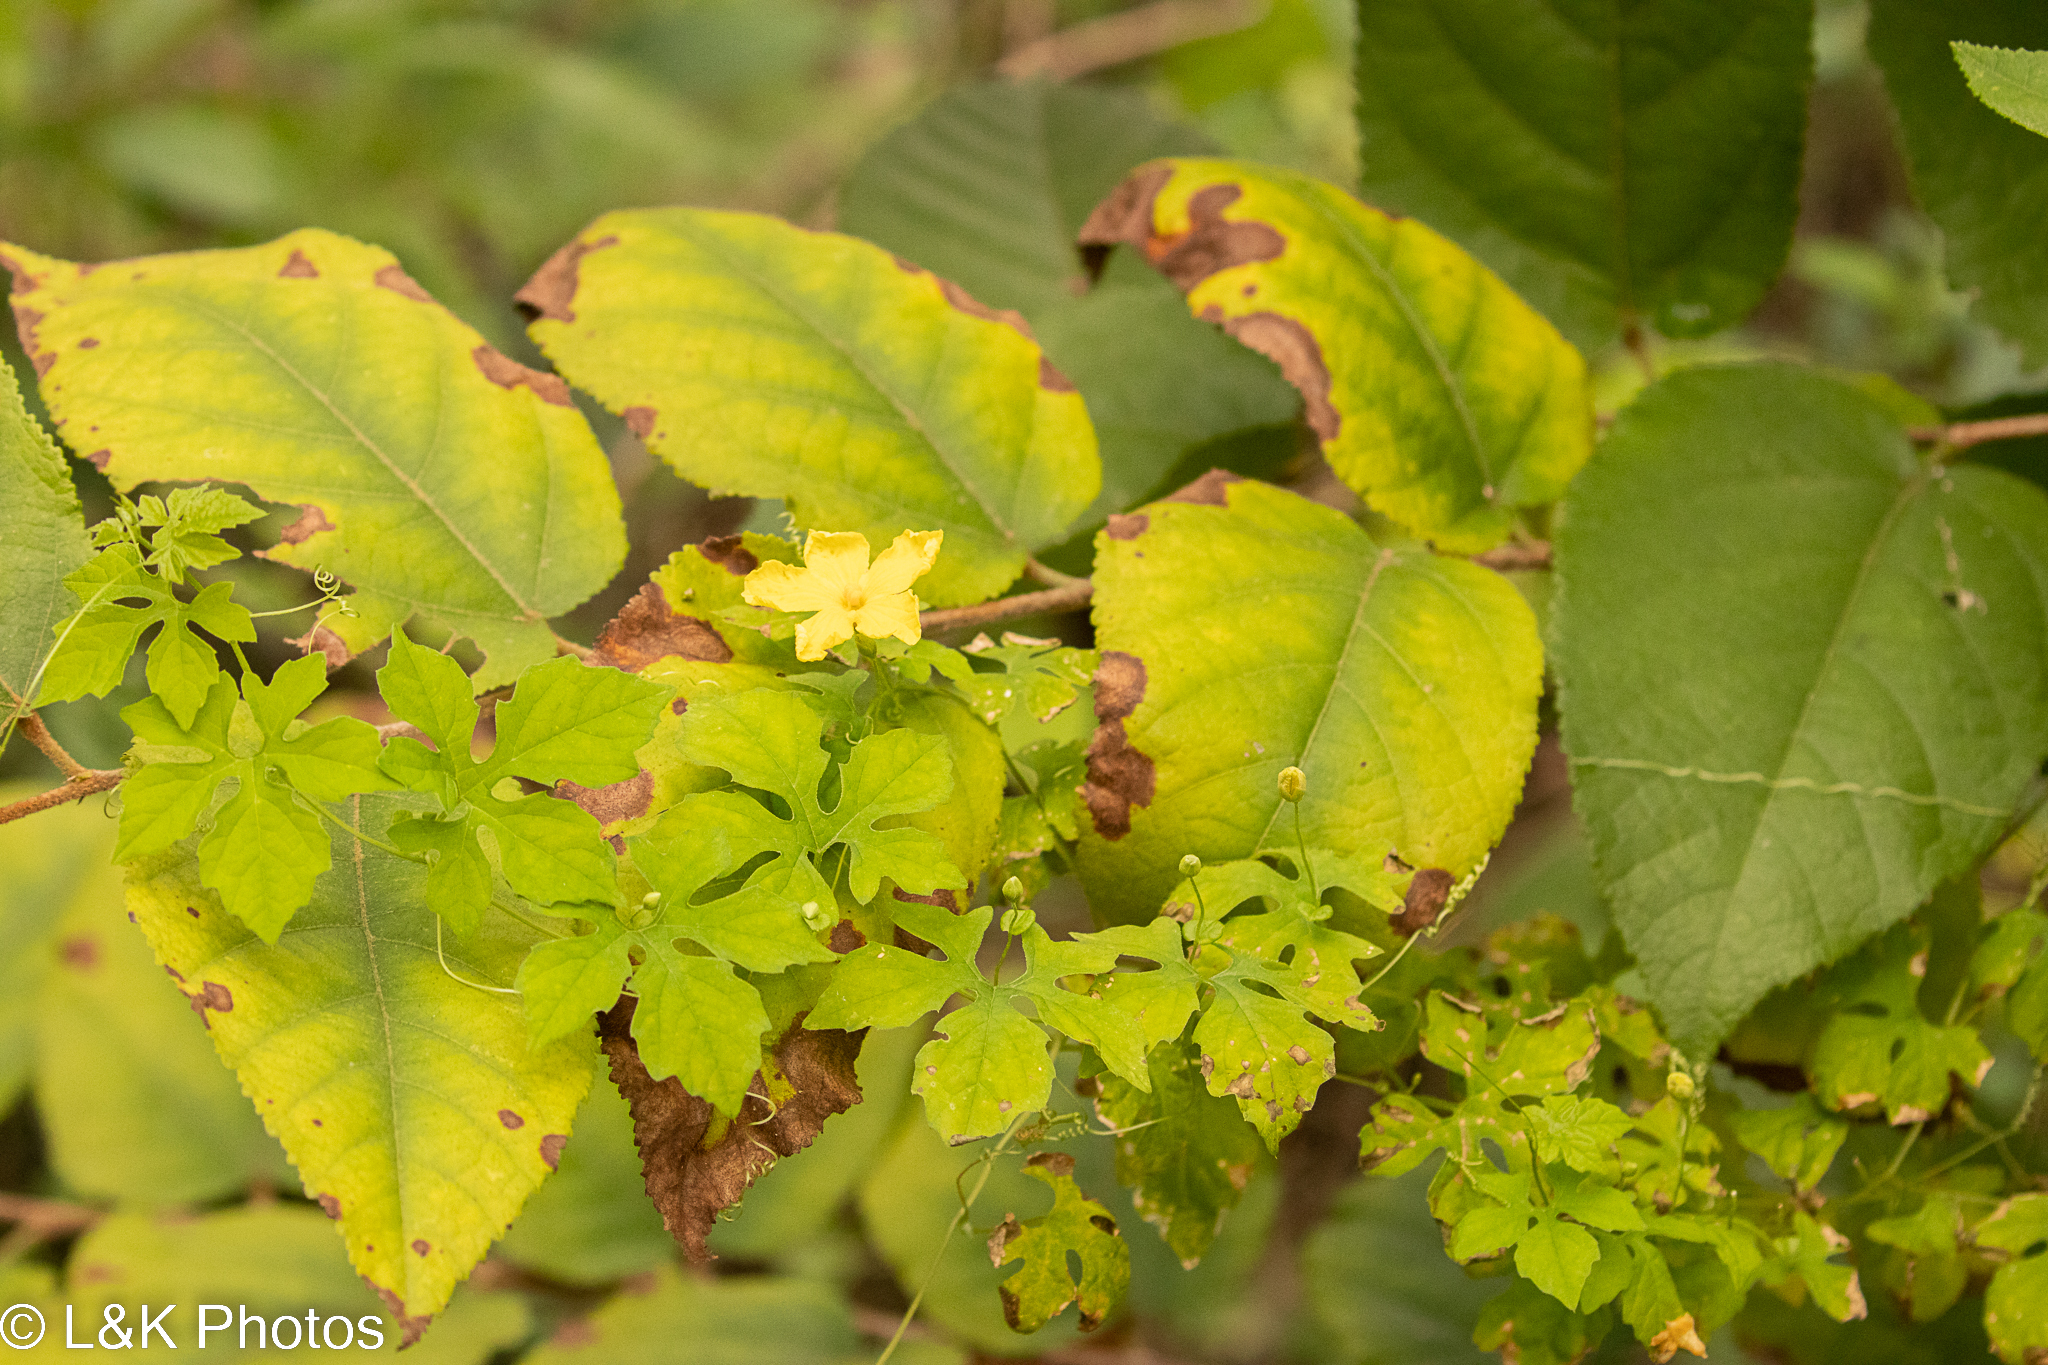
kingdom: Plantae
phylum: Tracheophyta
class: Magnoliopsida
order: Cucurbitales
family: Cucurbitaceae
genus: Momordica
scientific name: Momordica charantia
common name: Balsampear
